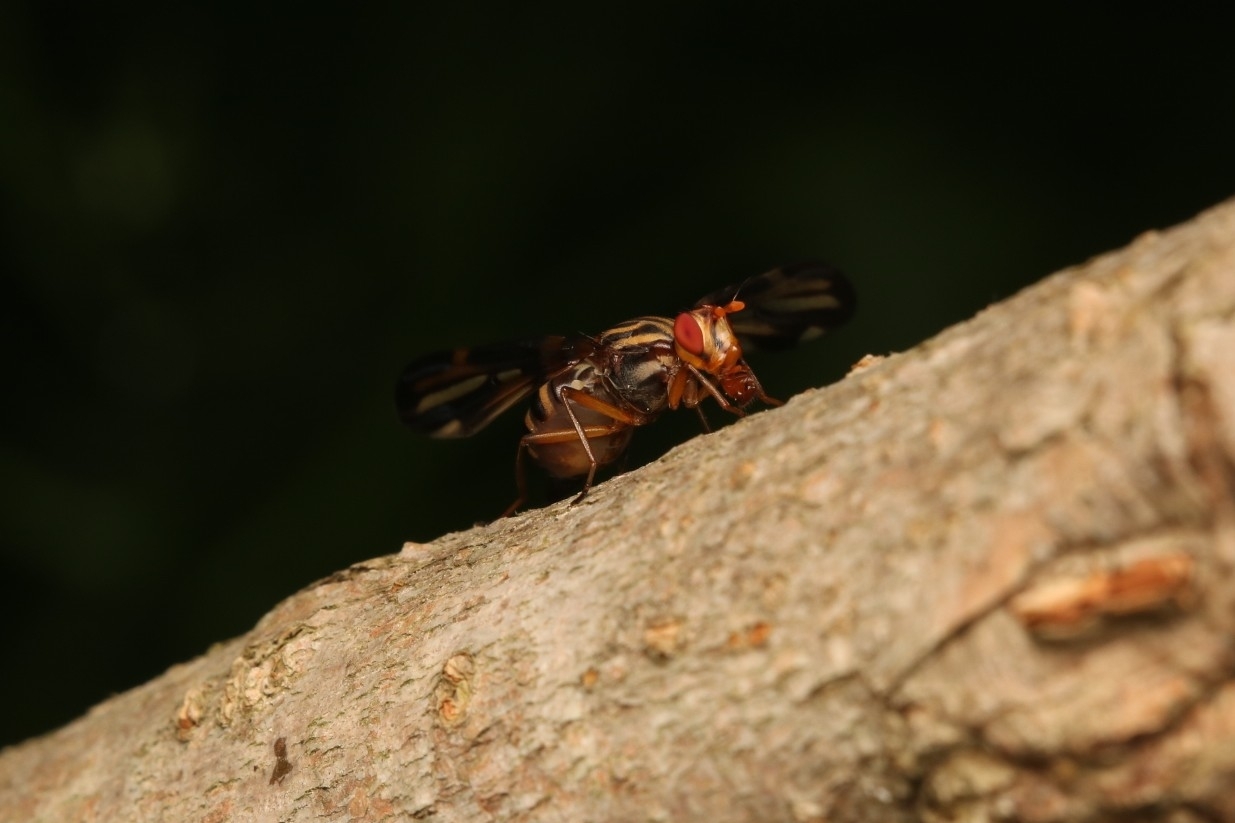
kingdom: Animalia
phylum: Arthropoda
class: Insecta
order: Diptera
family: Ulidiidae
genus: Idana
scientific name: Idana marginata
